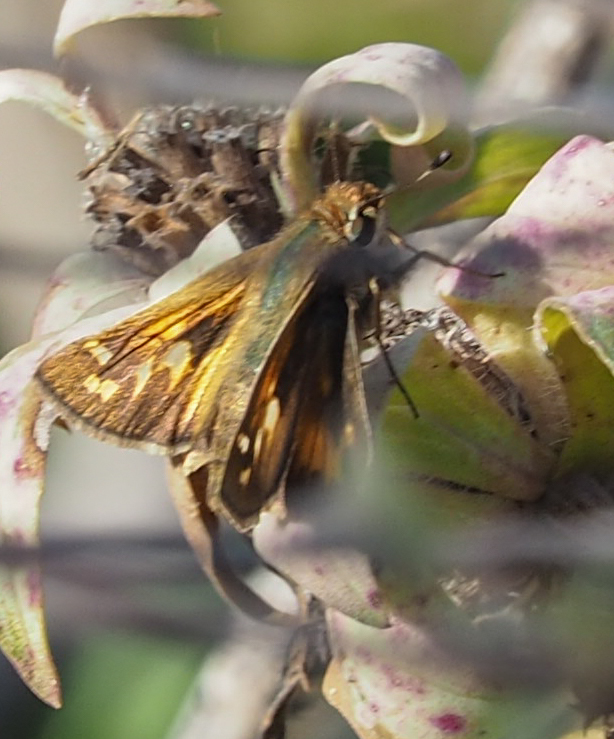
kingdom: Animalia
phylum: Arthropoda
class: Insecta
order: Lepidoptera
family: Hesperiidae
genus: Atalopedes
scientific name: Atalopedes
